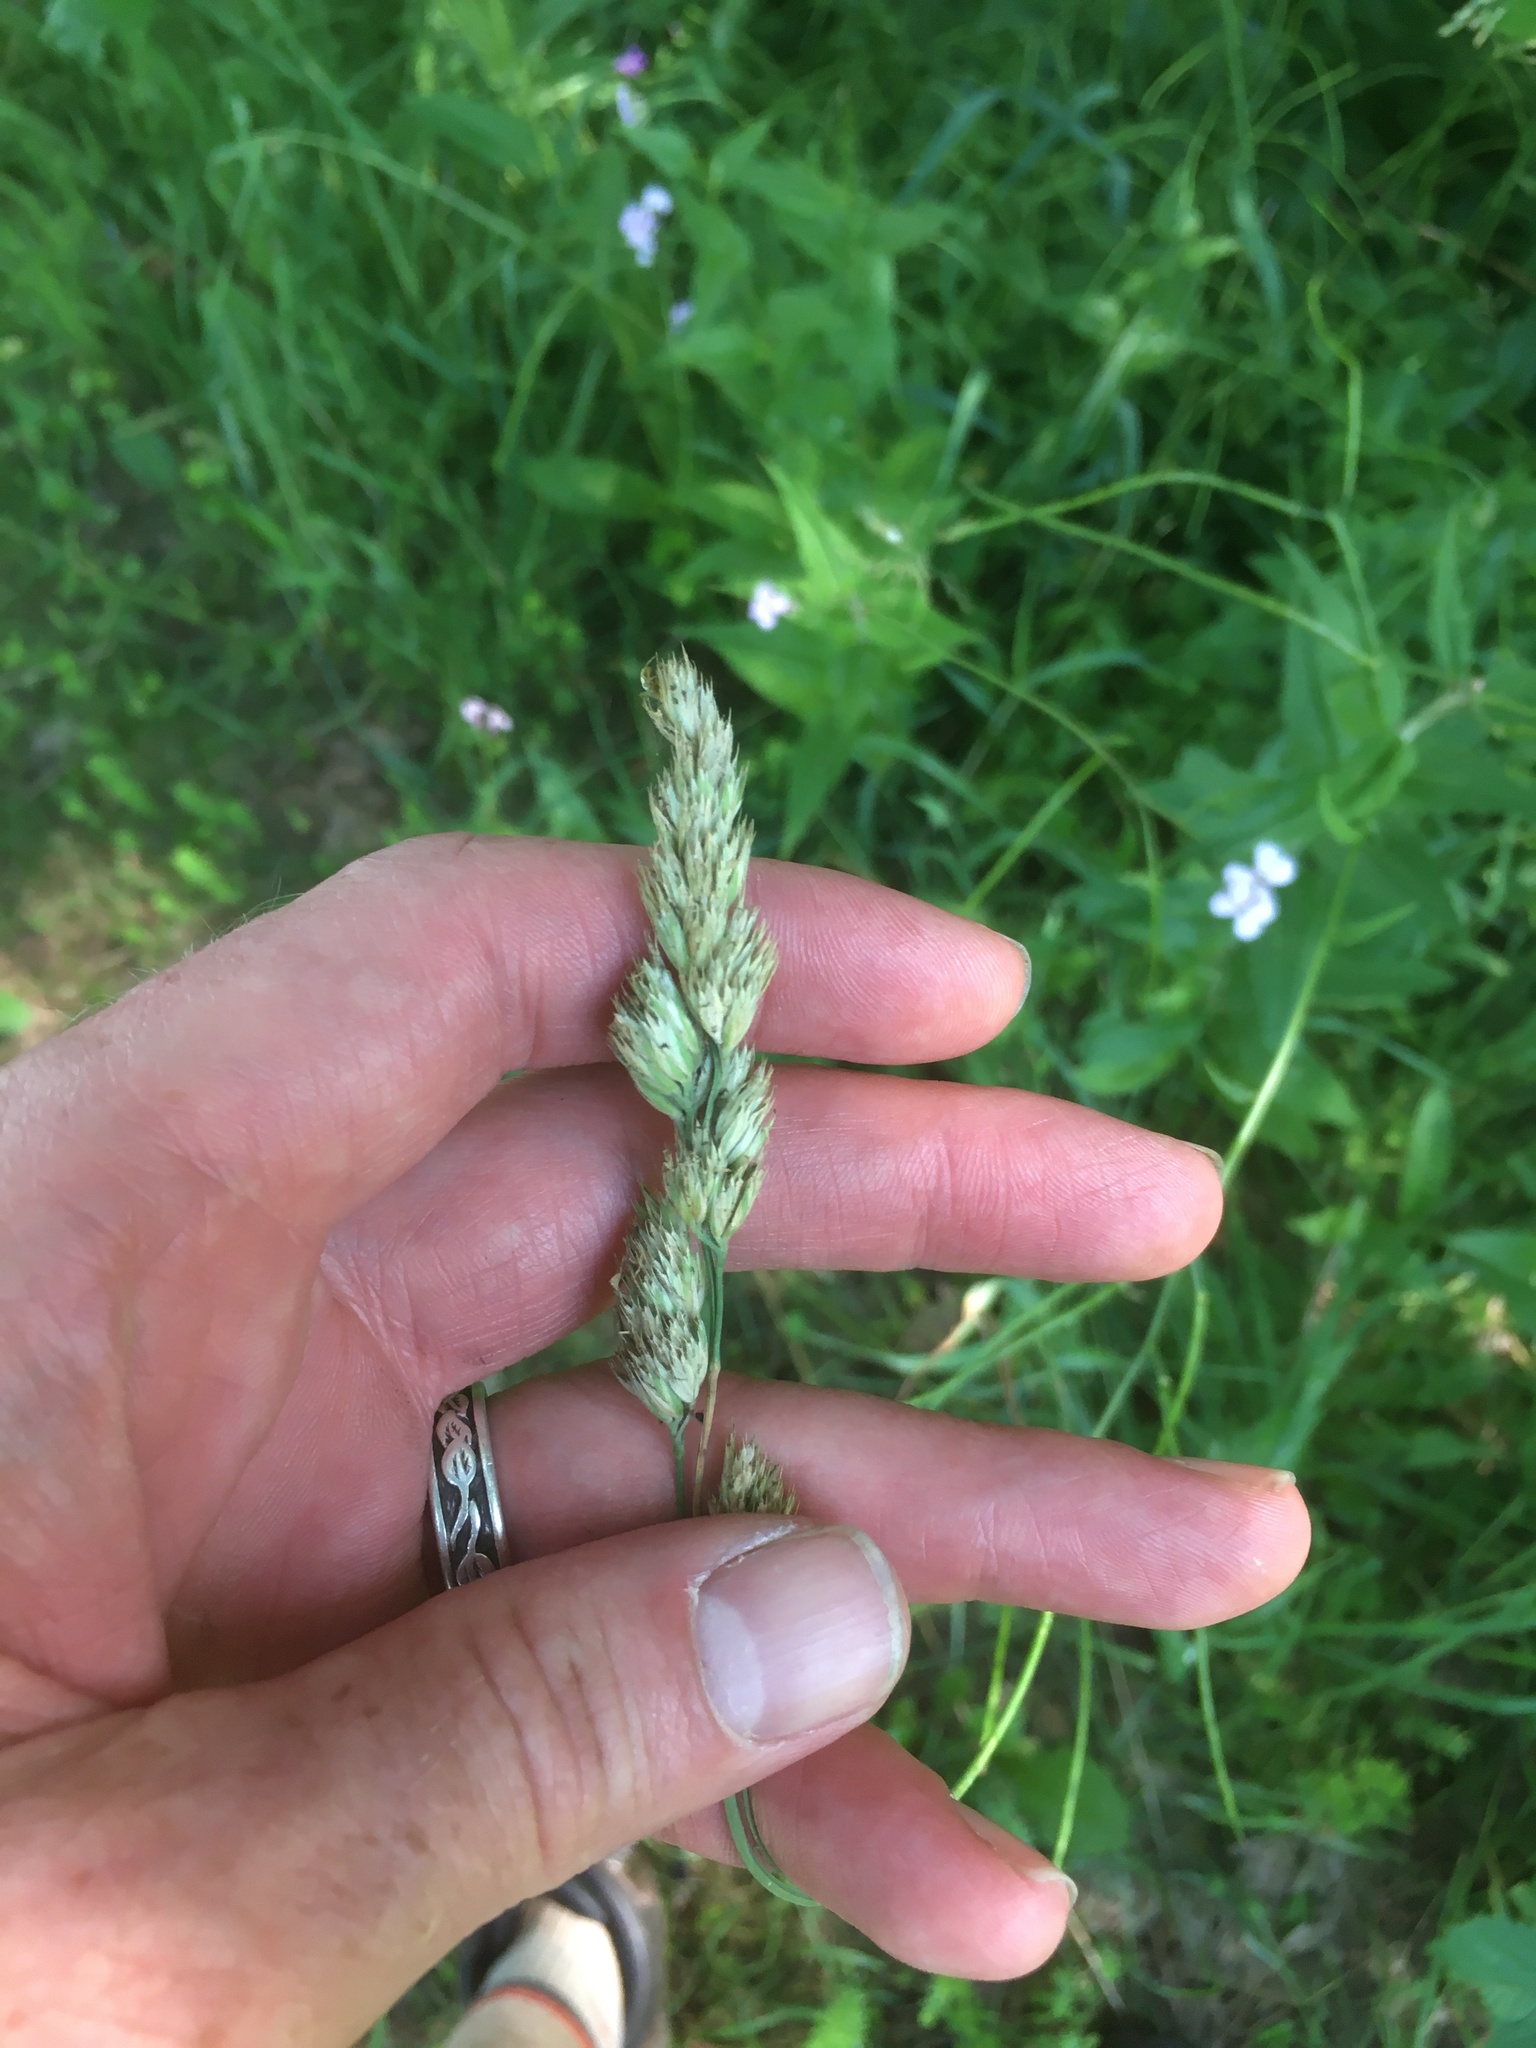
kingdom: Plantae
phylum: Tracheophyta
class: Liliopsida
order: Poales
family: Poaceae
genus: Dactylis
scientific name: Dactylis glomerata
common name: Orchardgrass
